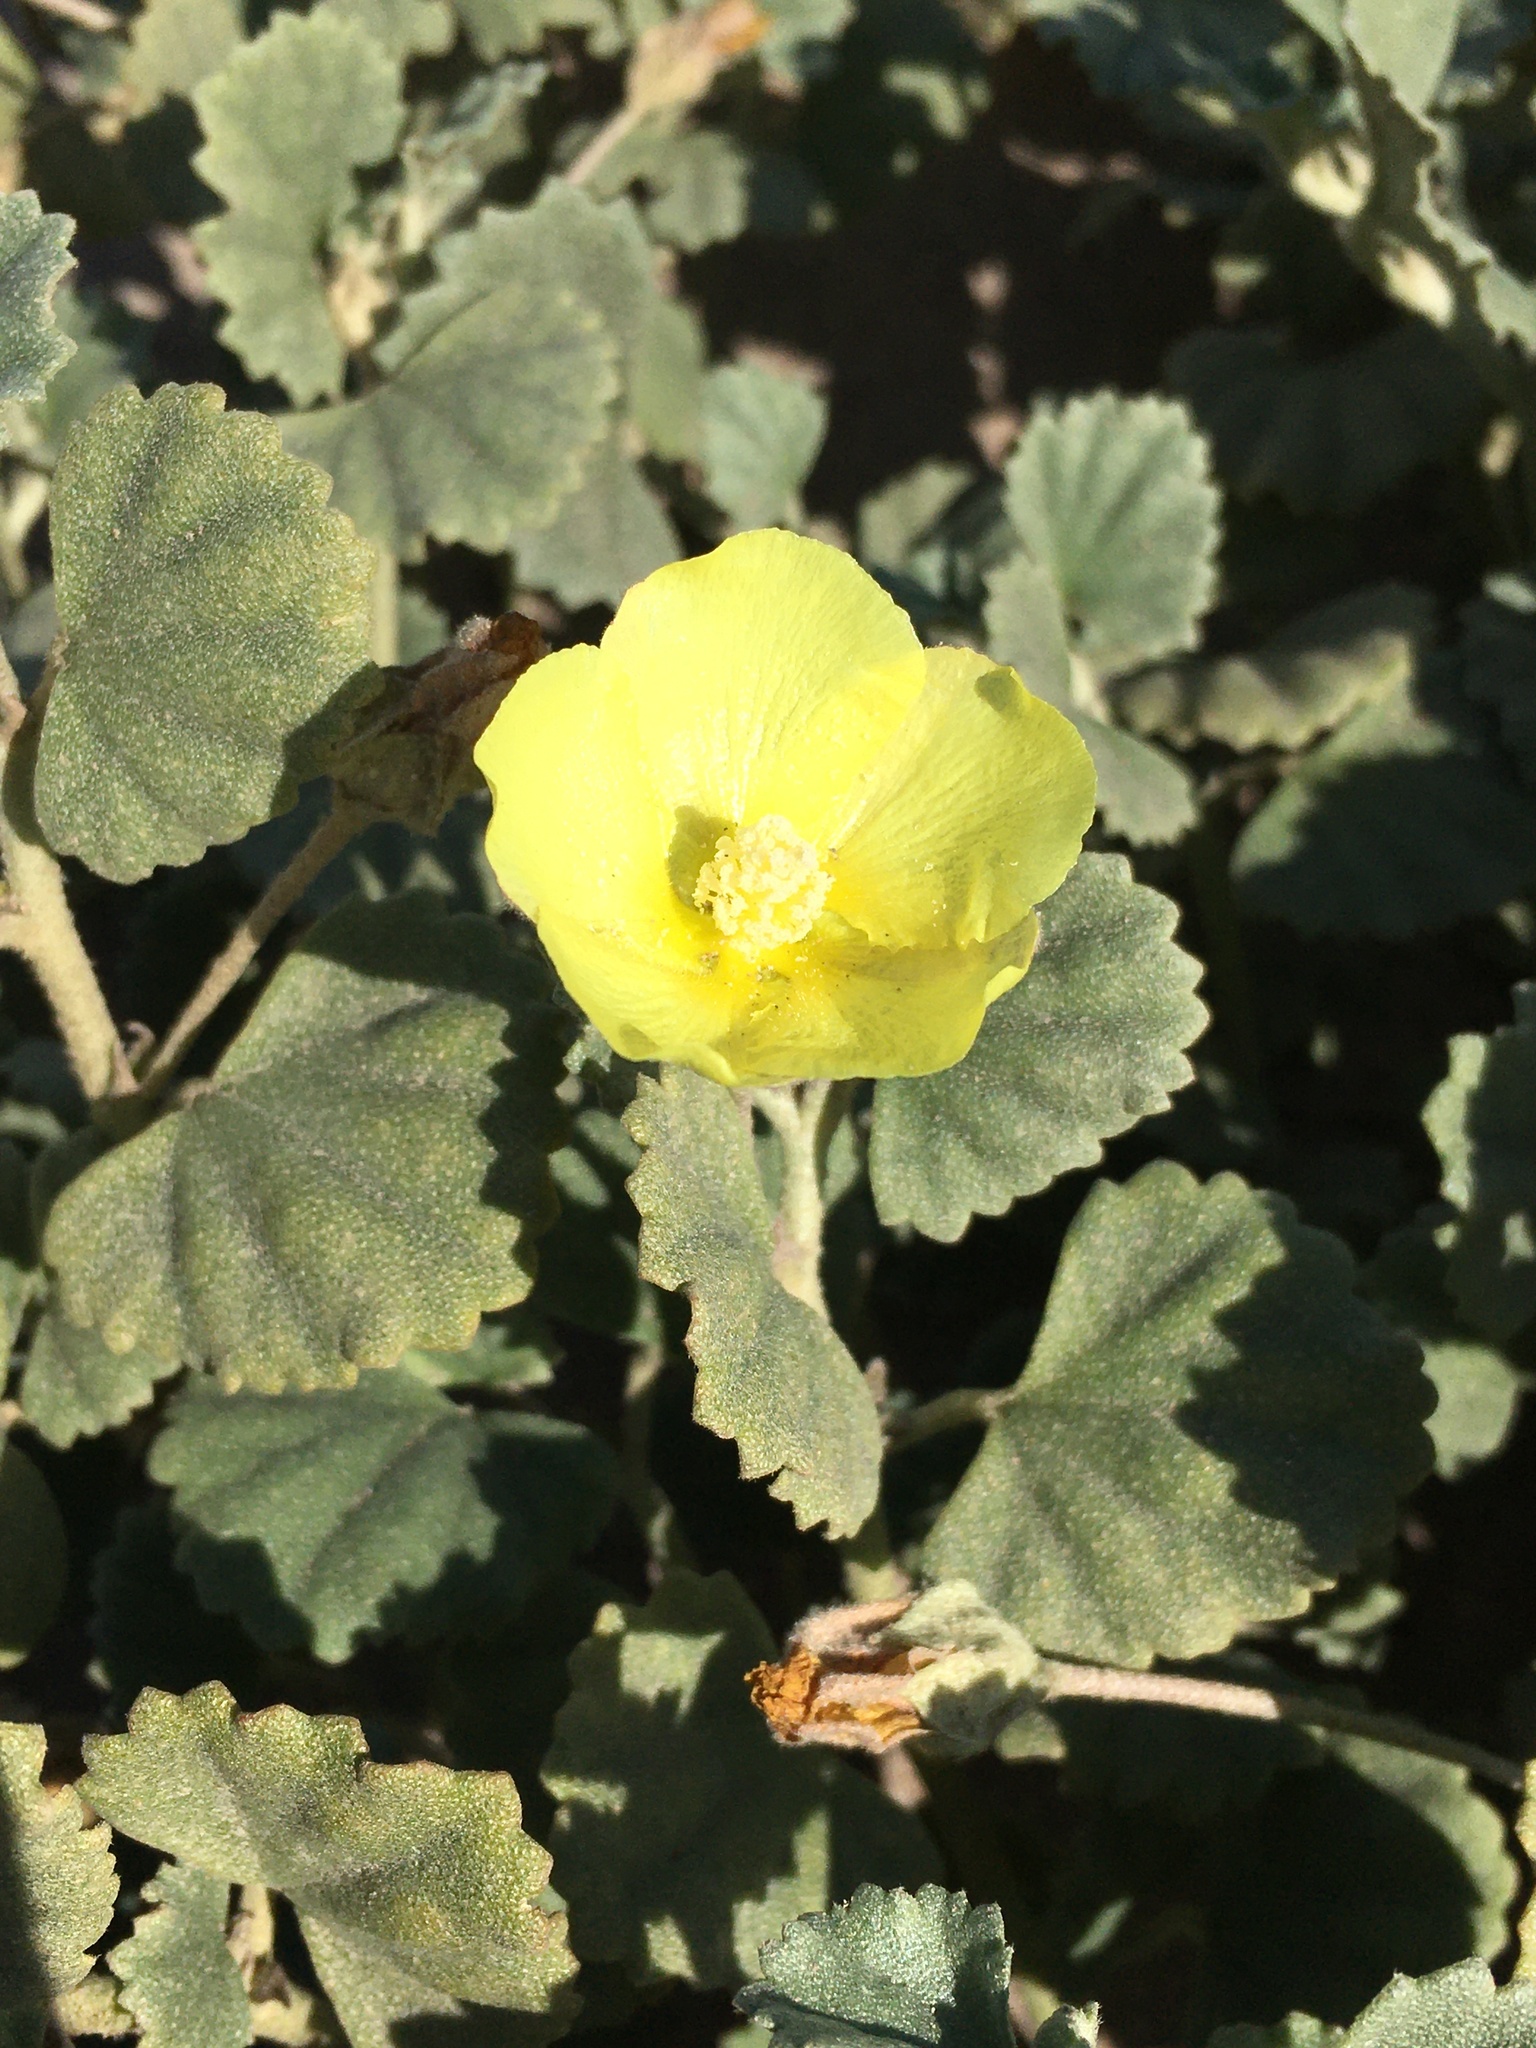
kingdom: Plantae
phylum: Tracheophyta
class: Magnoliopsida
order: Malvales
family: Malvaceae
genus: Malvella
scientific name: Malvella leprosa
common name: Alkali-mallow
